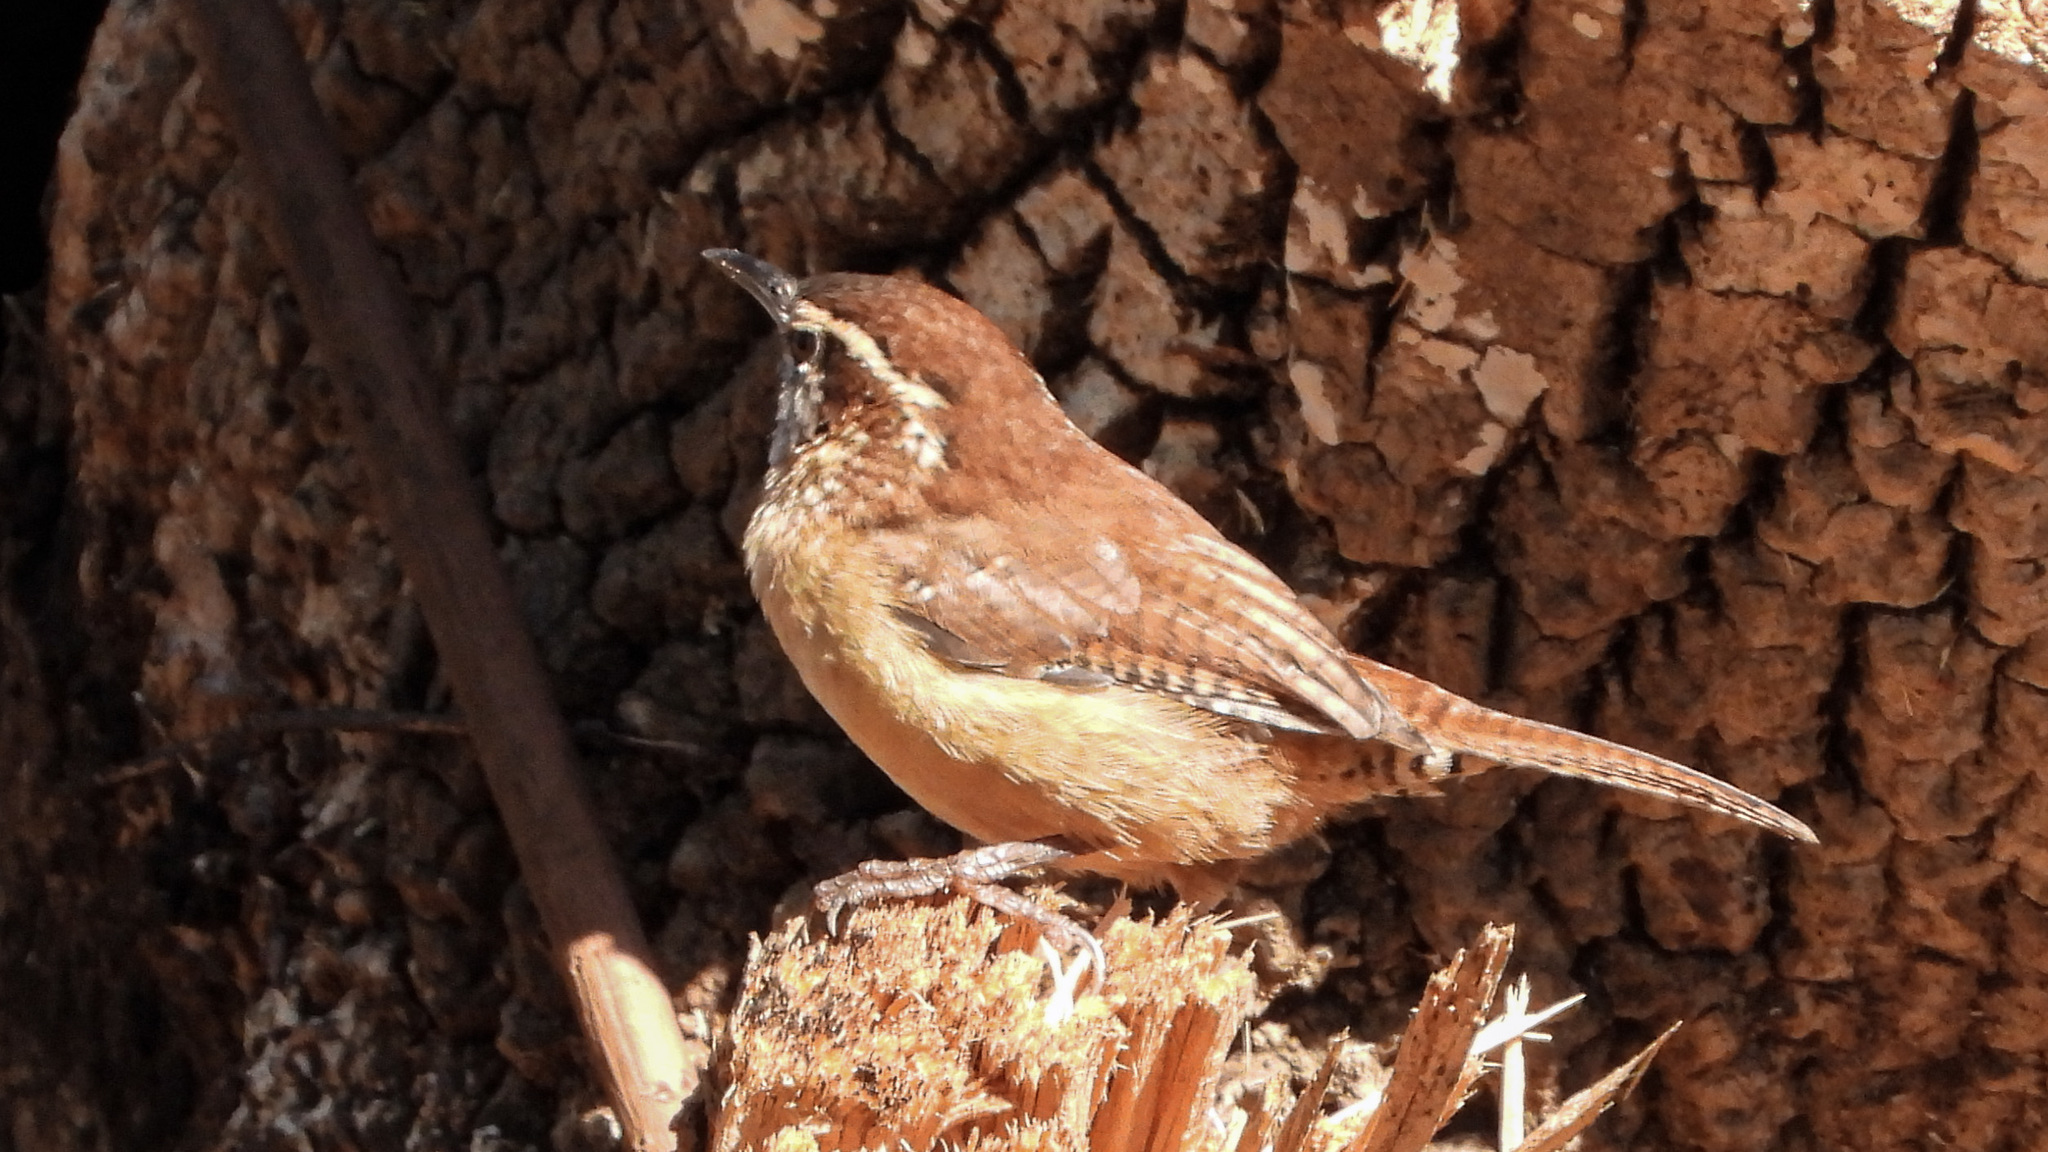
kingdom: Animalia
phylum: Chordata
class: Aves
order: Passeriformes
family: Troglodytidae
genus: Thryothorus
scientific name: Thryothorus ludovicianus
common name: Carolina wren
